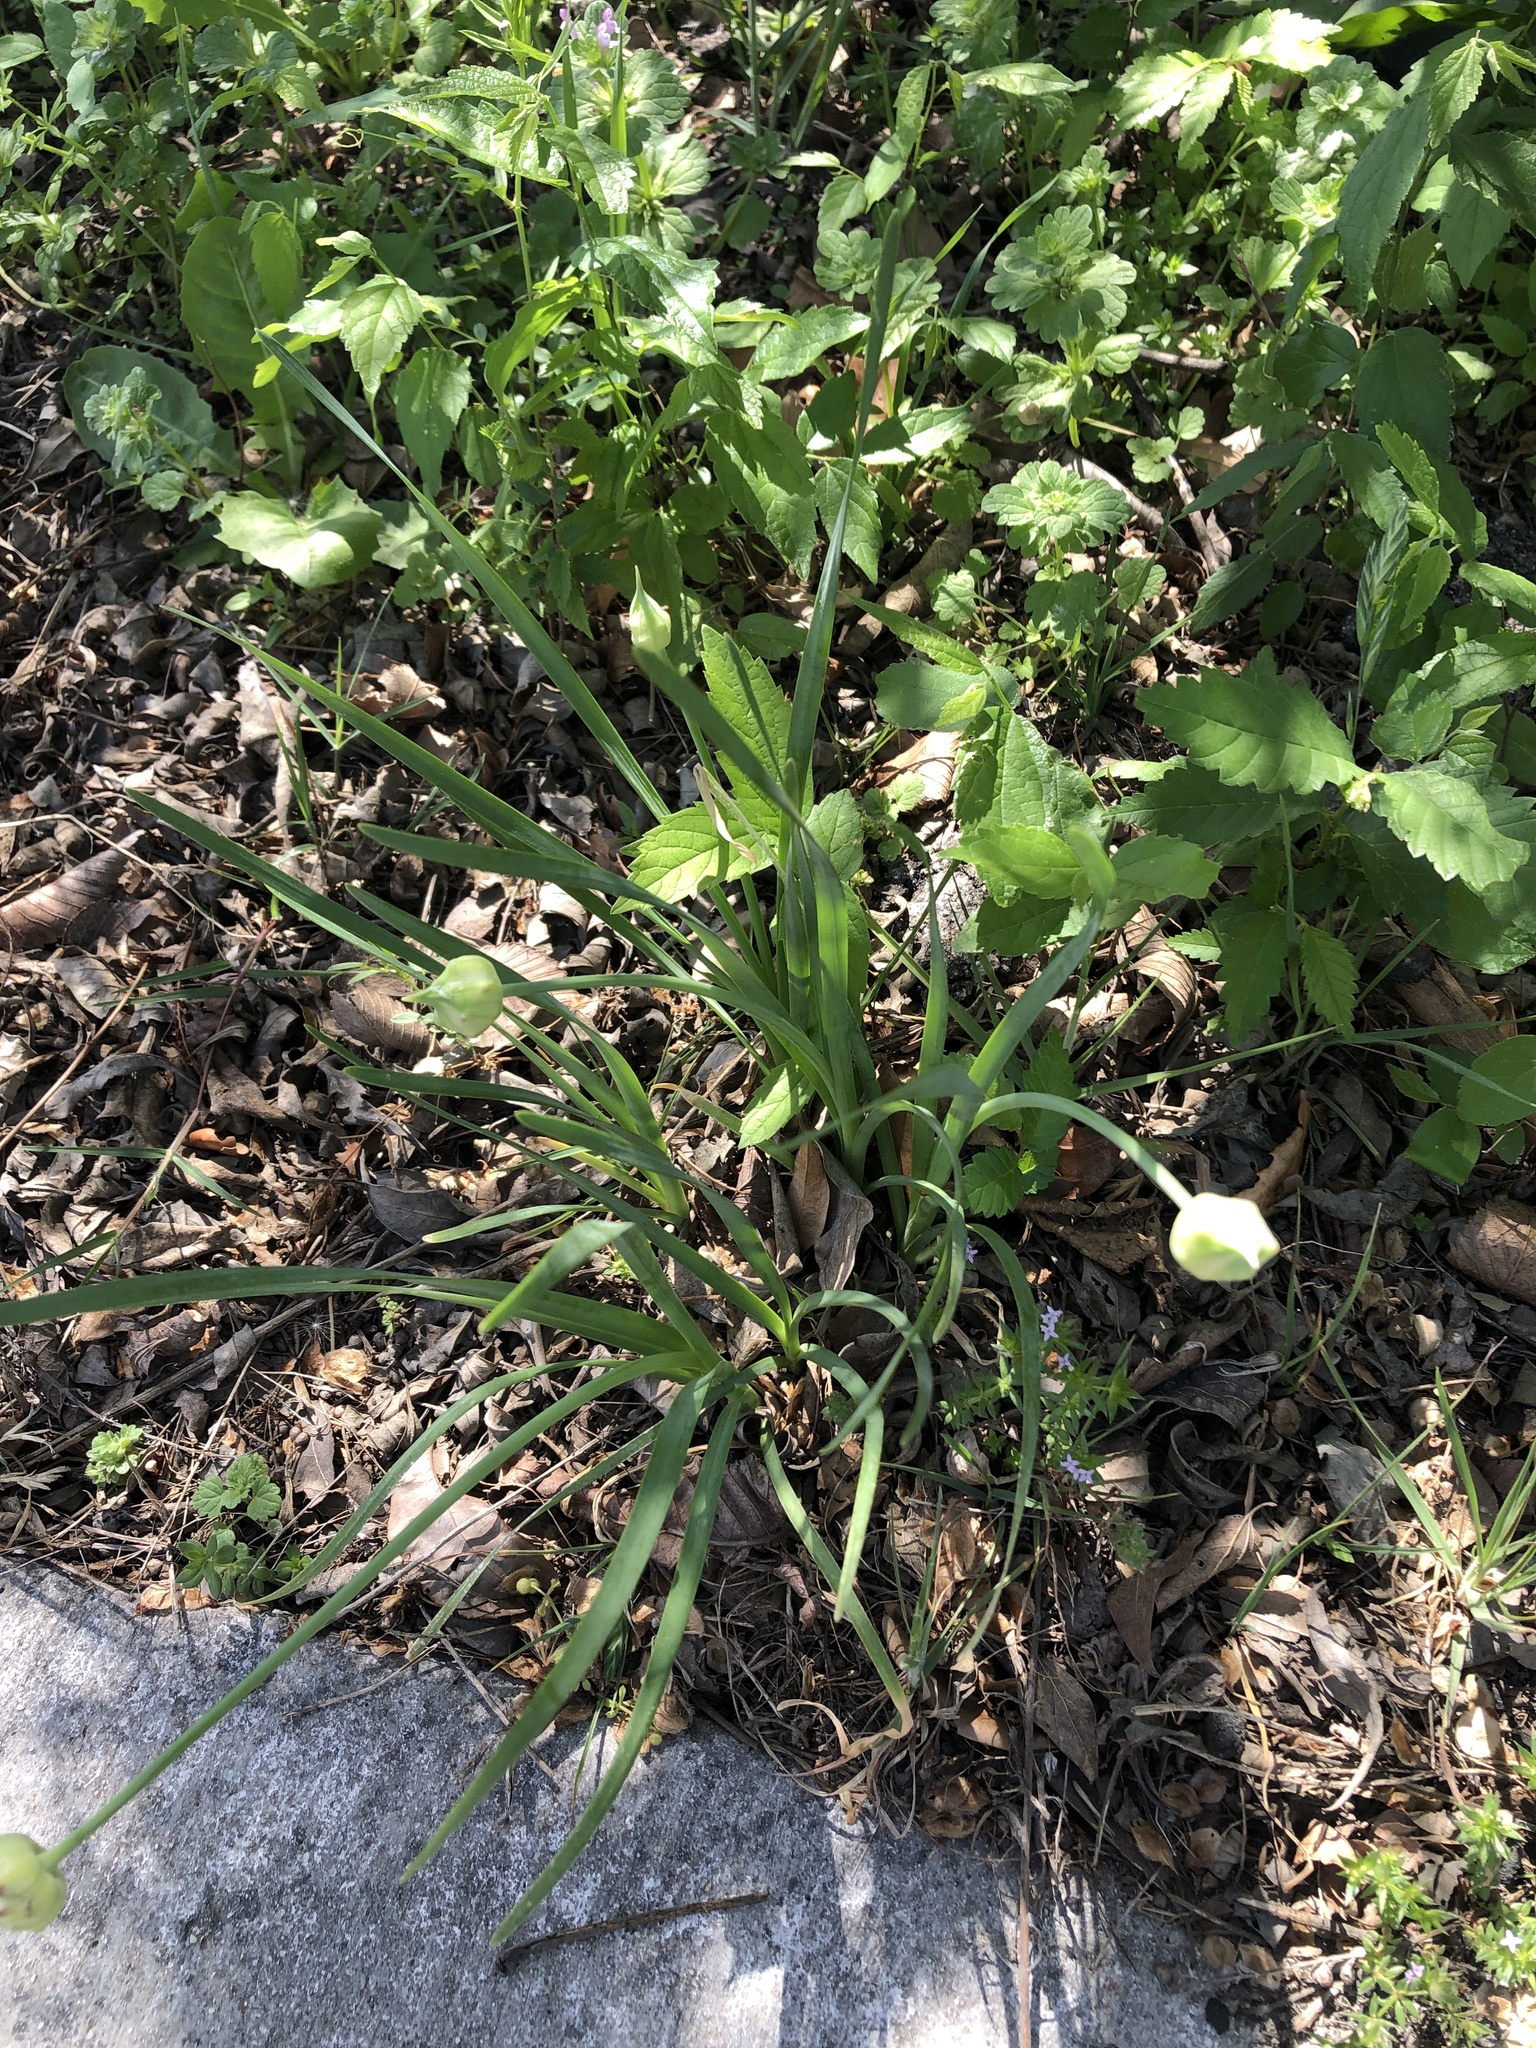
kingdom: Plantae
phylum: Tracheophyta
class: Liliopsida
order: Asparagales
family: Amaryllidaceae
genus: Allium
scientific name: Allium canadense
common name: Meadow garlic
